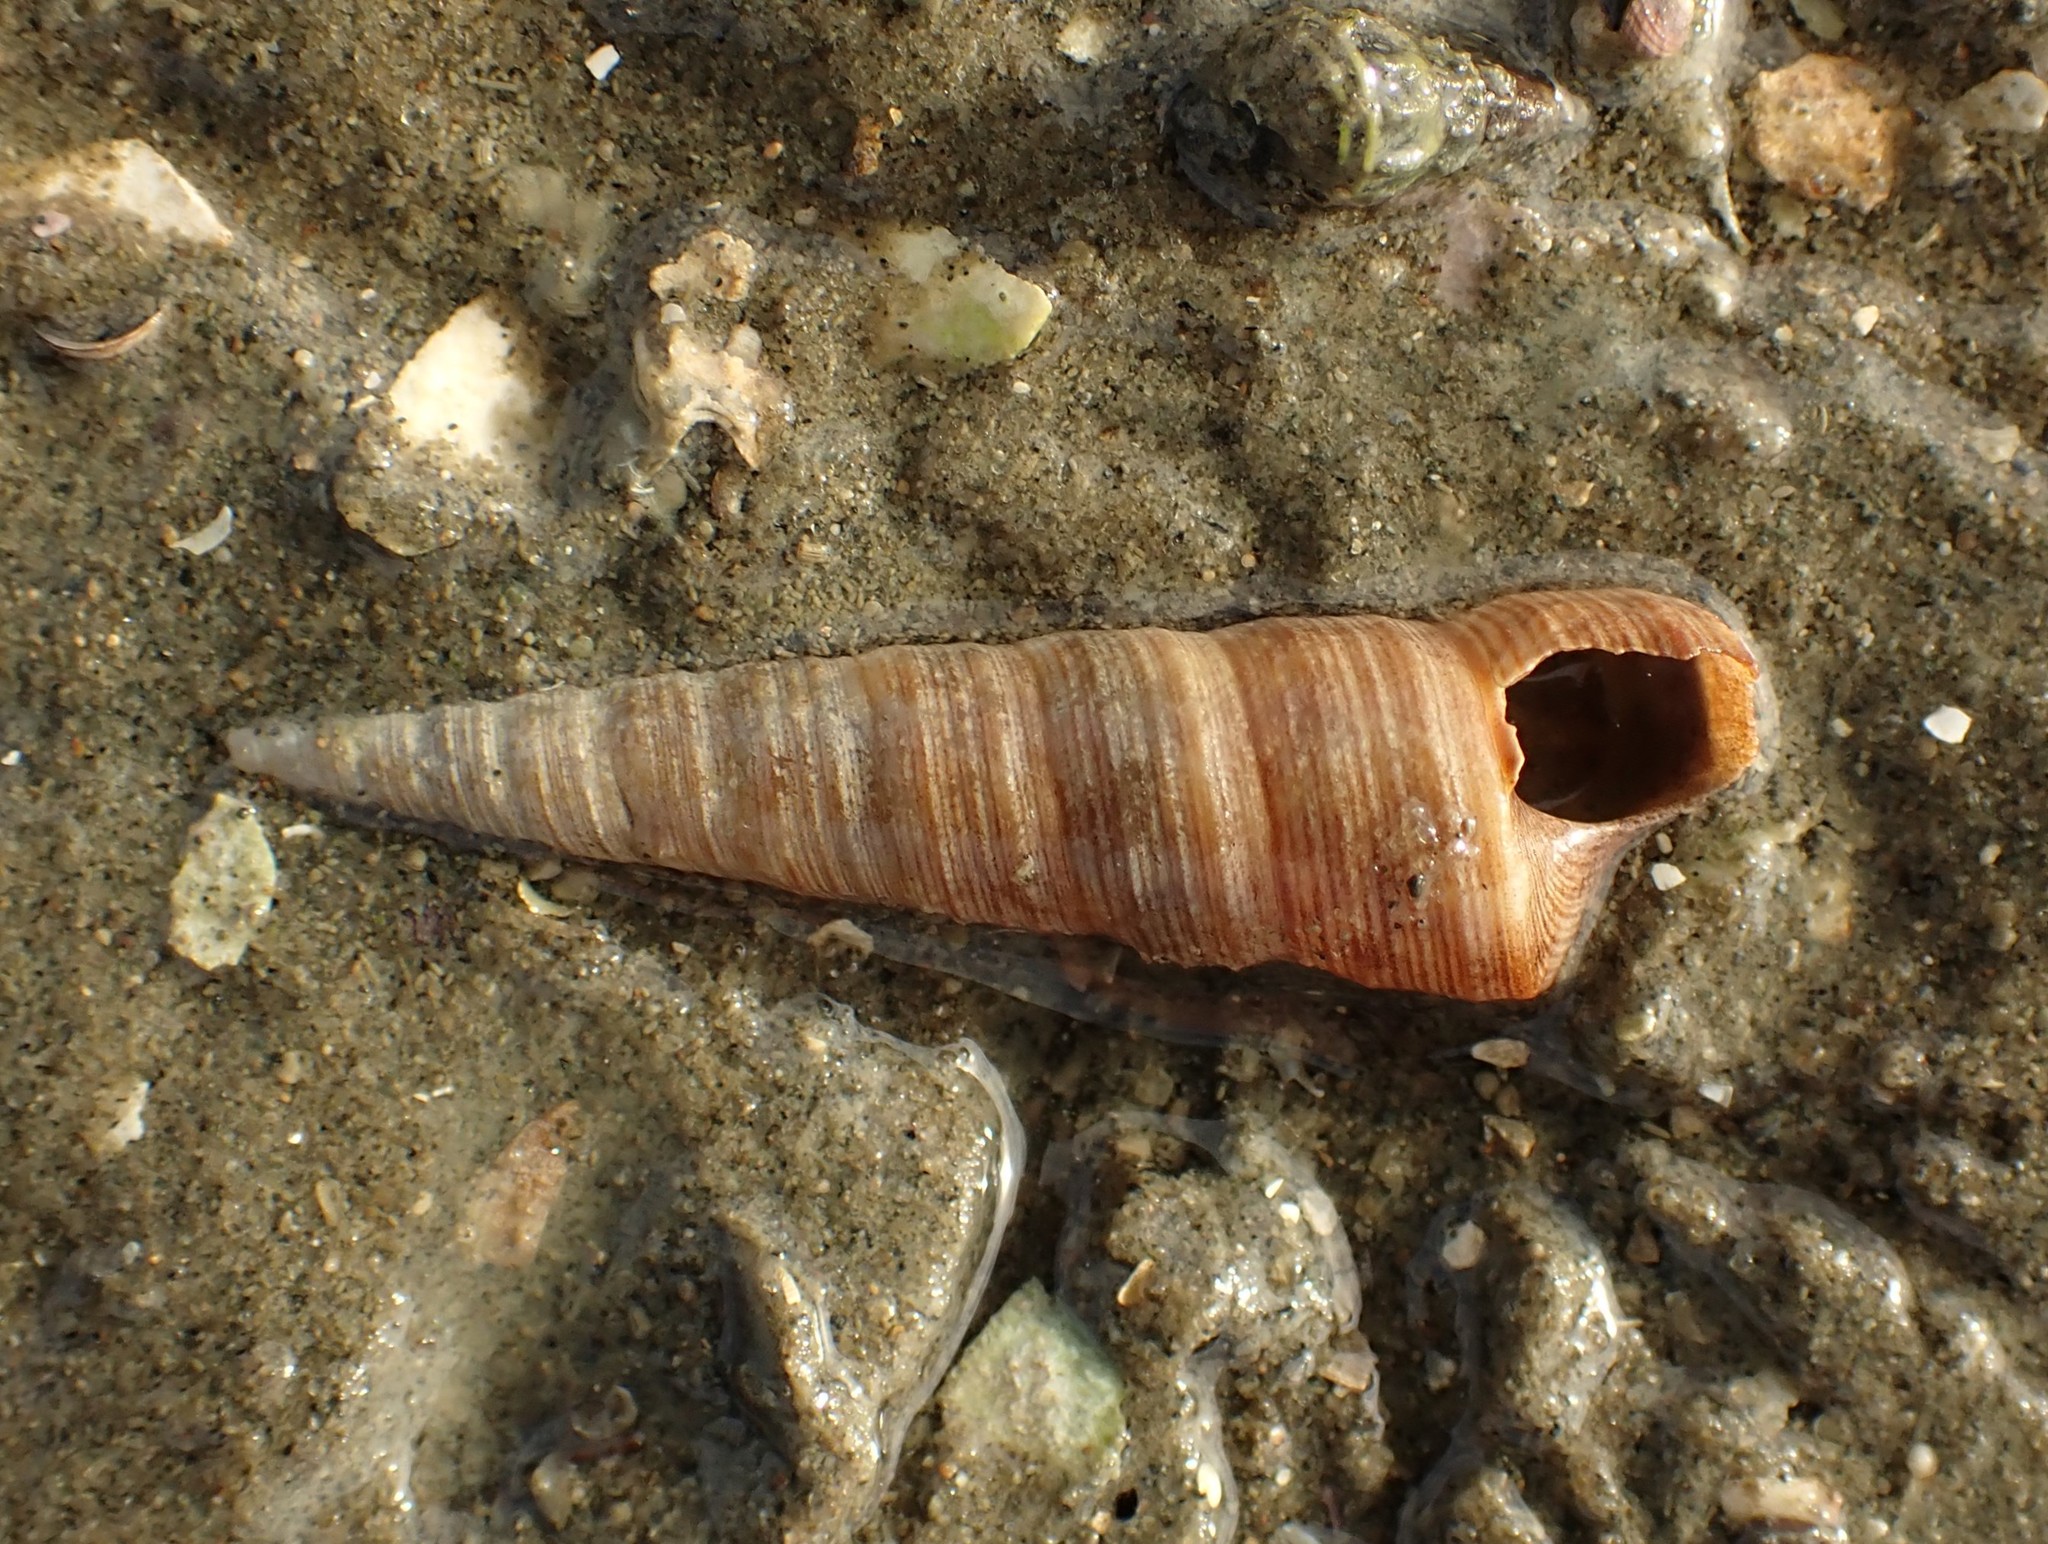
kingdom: Animalia
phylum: Mollusca
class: Gastropoda
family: Turritellidae
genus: Maoricolpus
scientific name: Maoricolpus roseus
